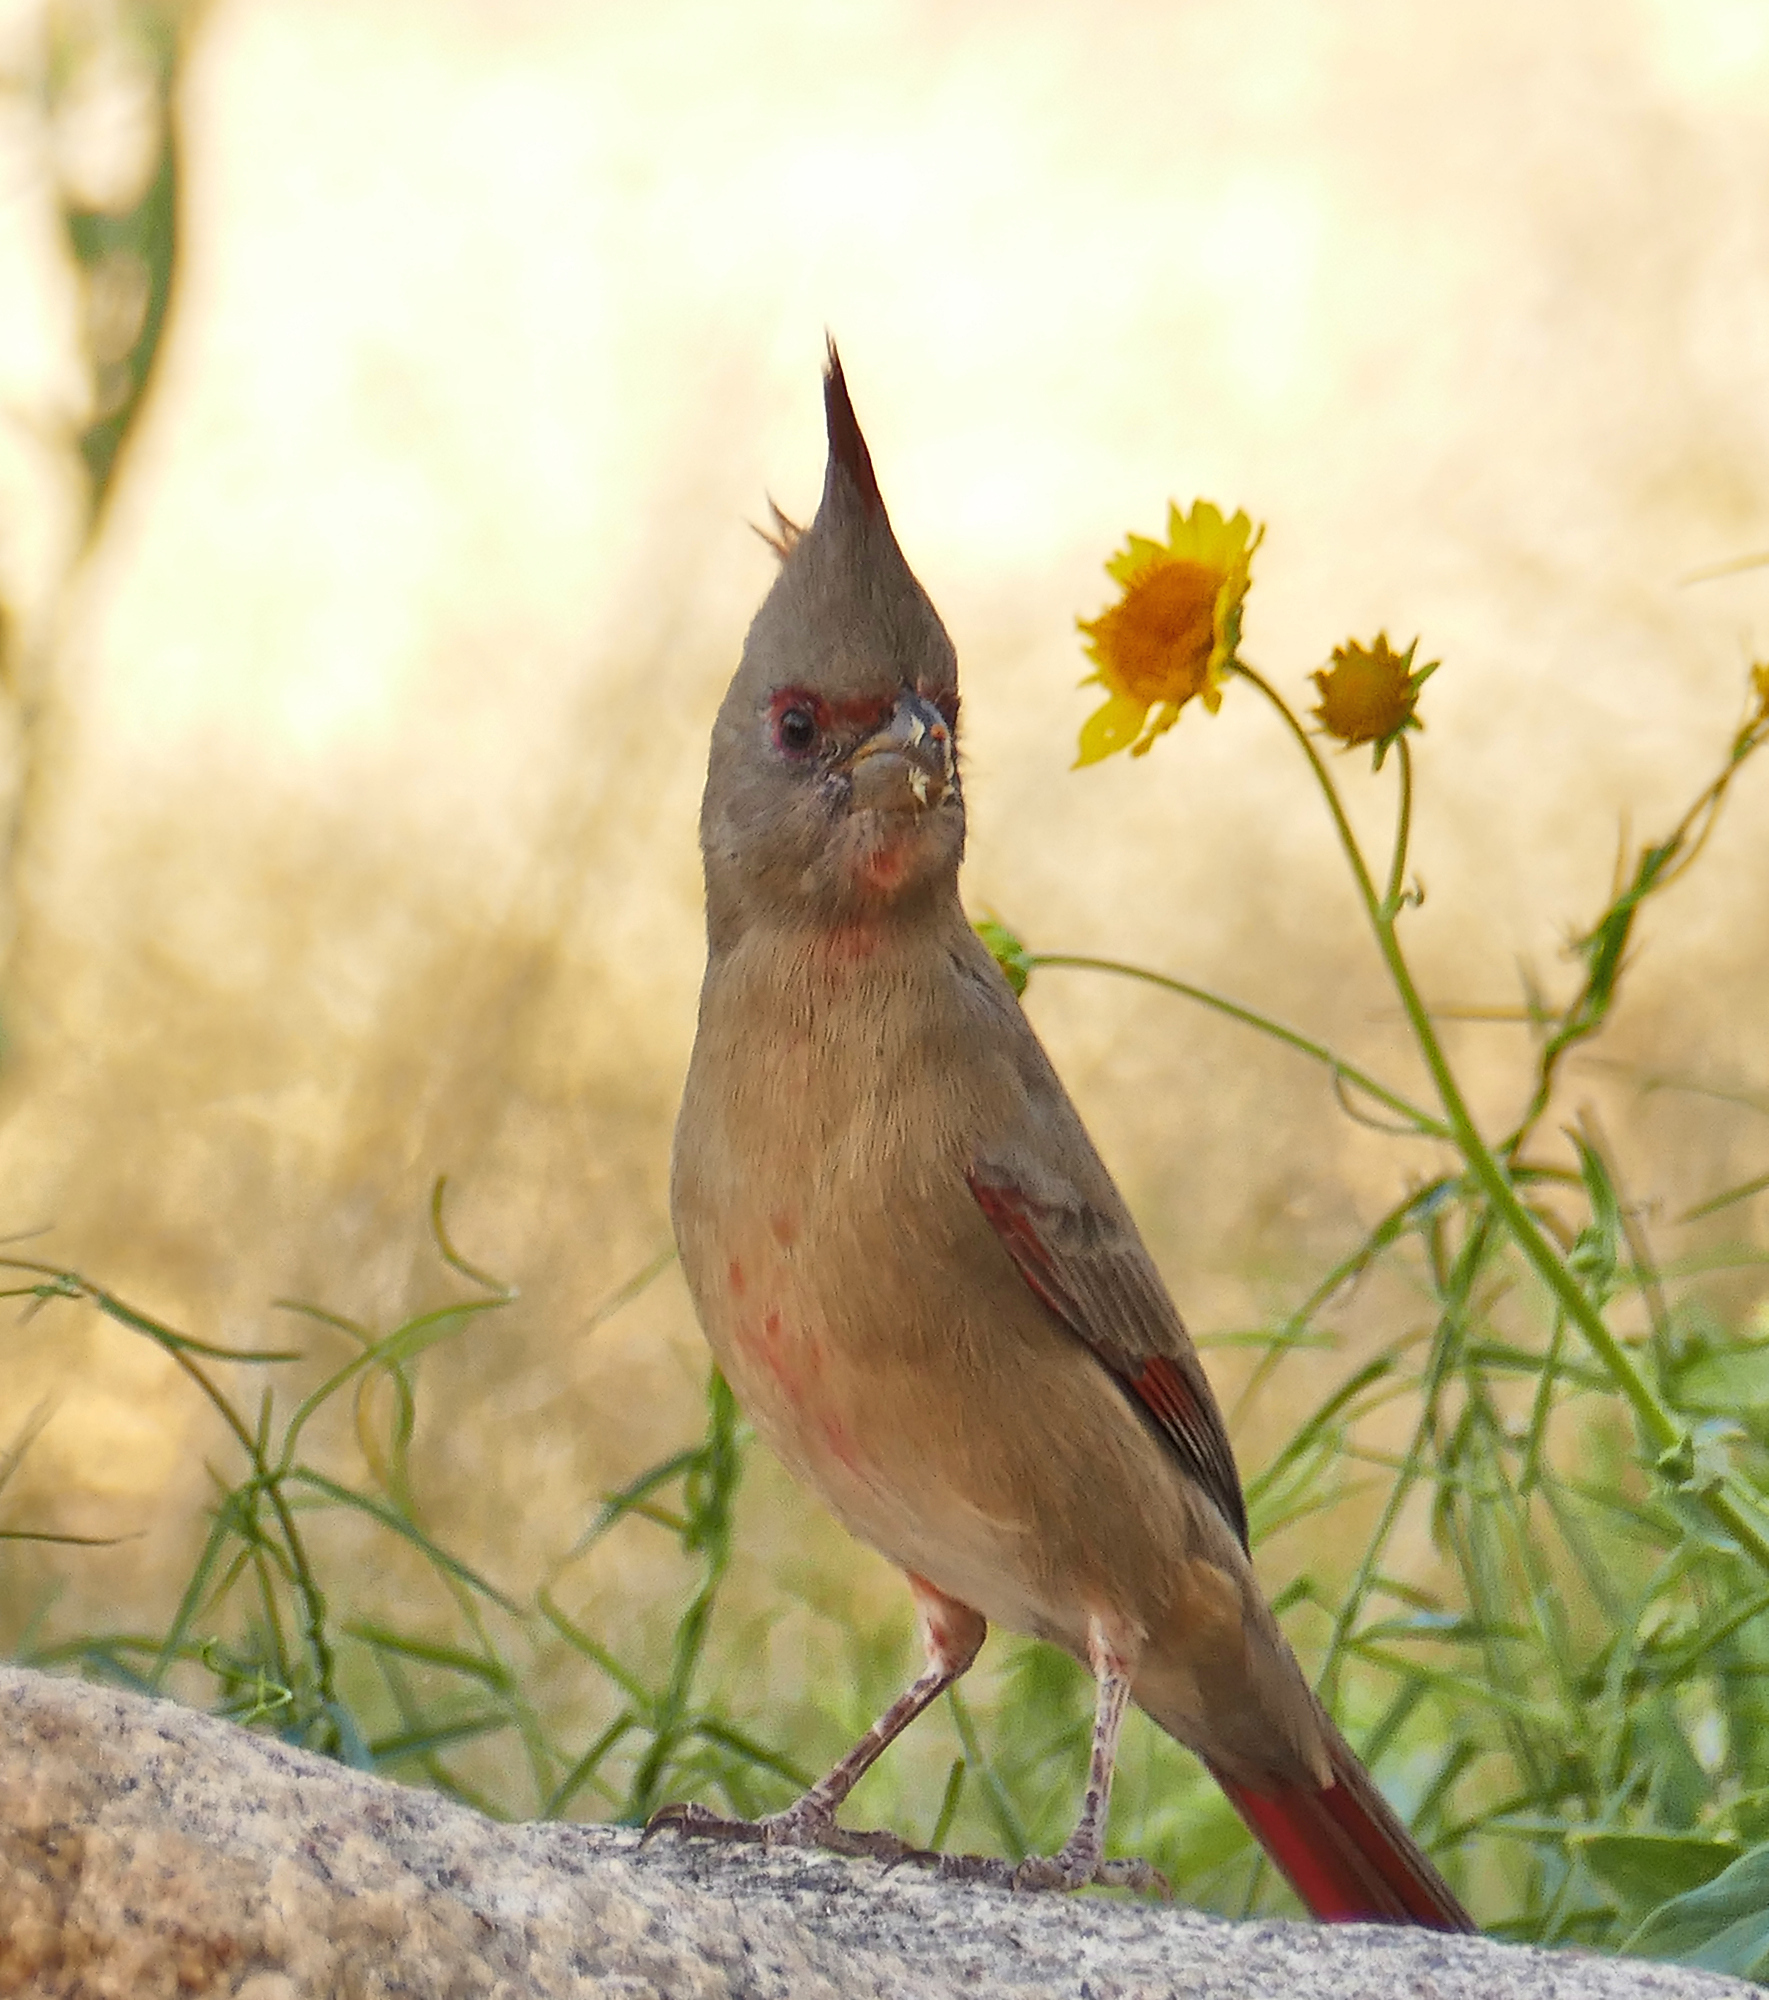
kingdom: Animalia
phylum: Chordata
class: Aves
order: Passeriformes
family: Cardinalidae
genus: Cardinalis
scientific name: Cardinalis sinuatus
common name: Pyrrhuloxia
